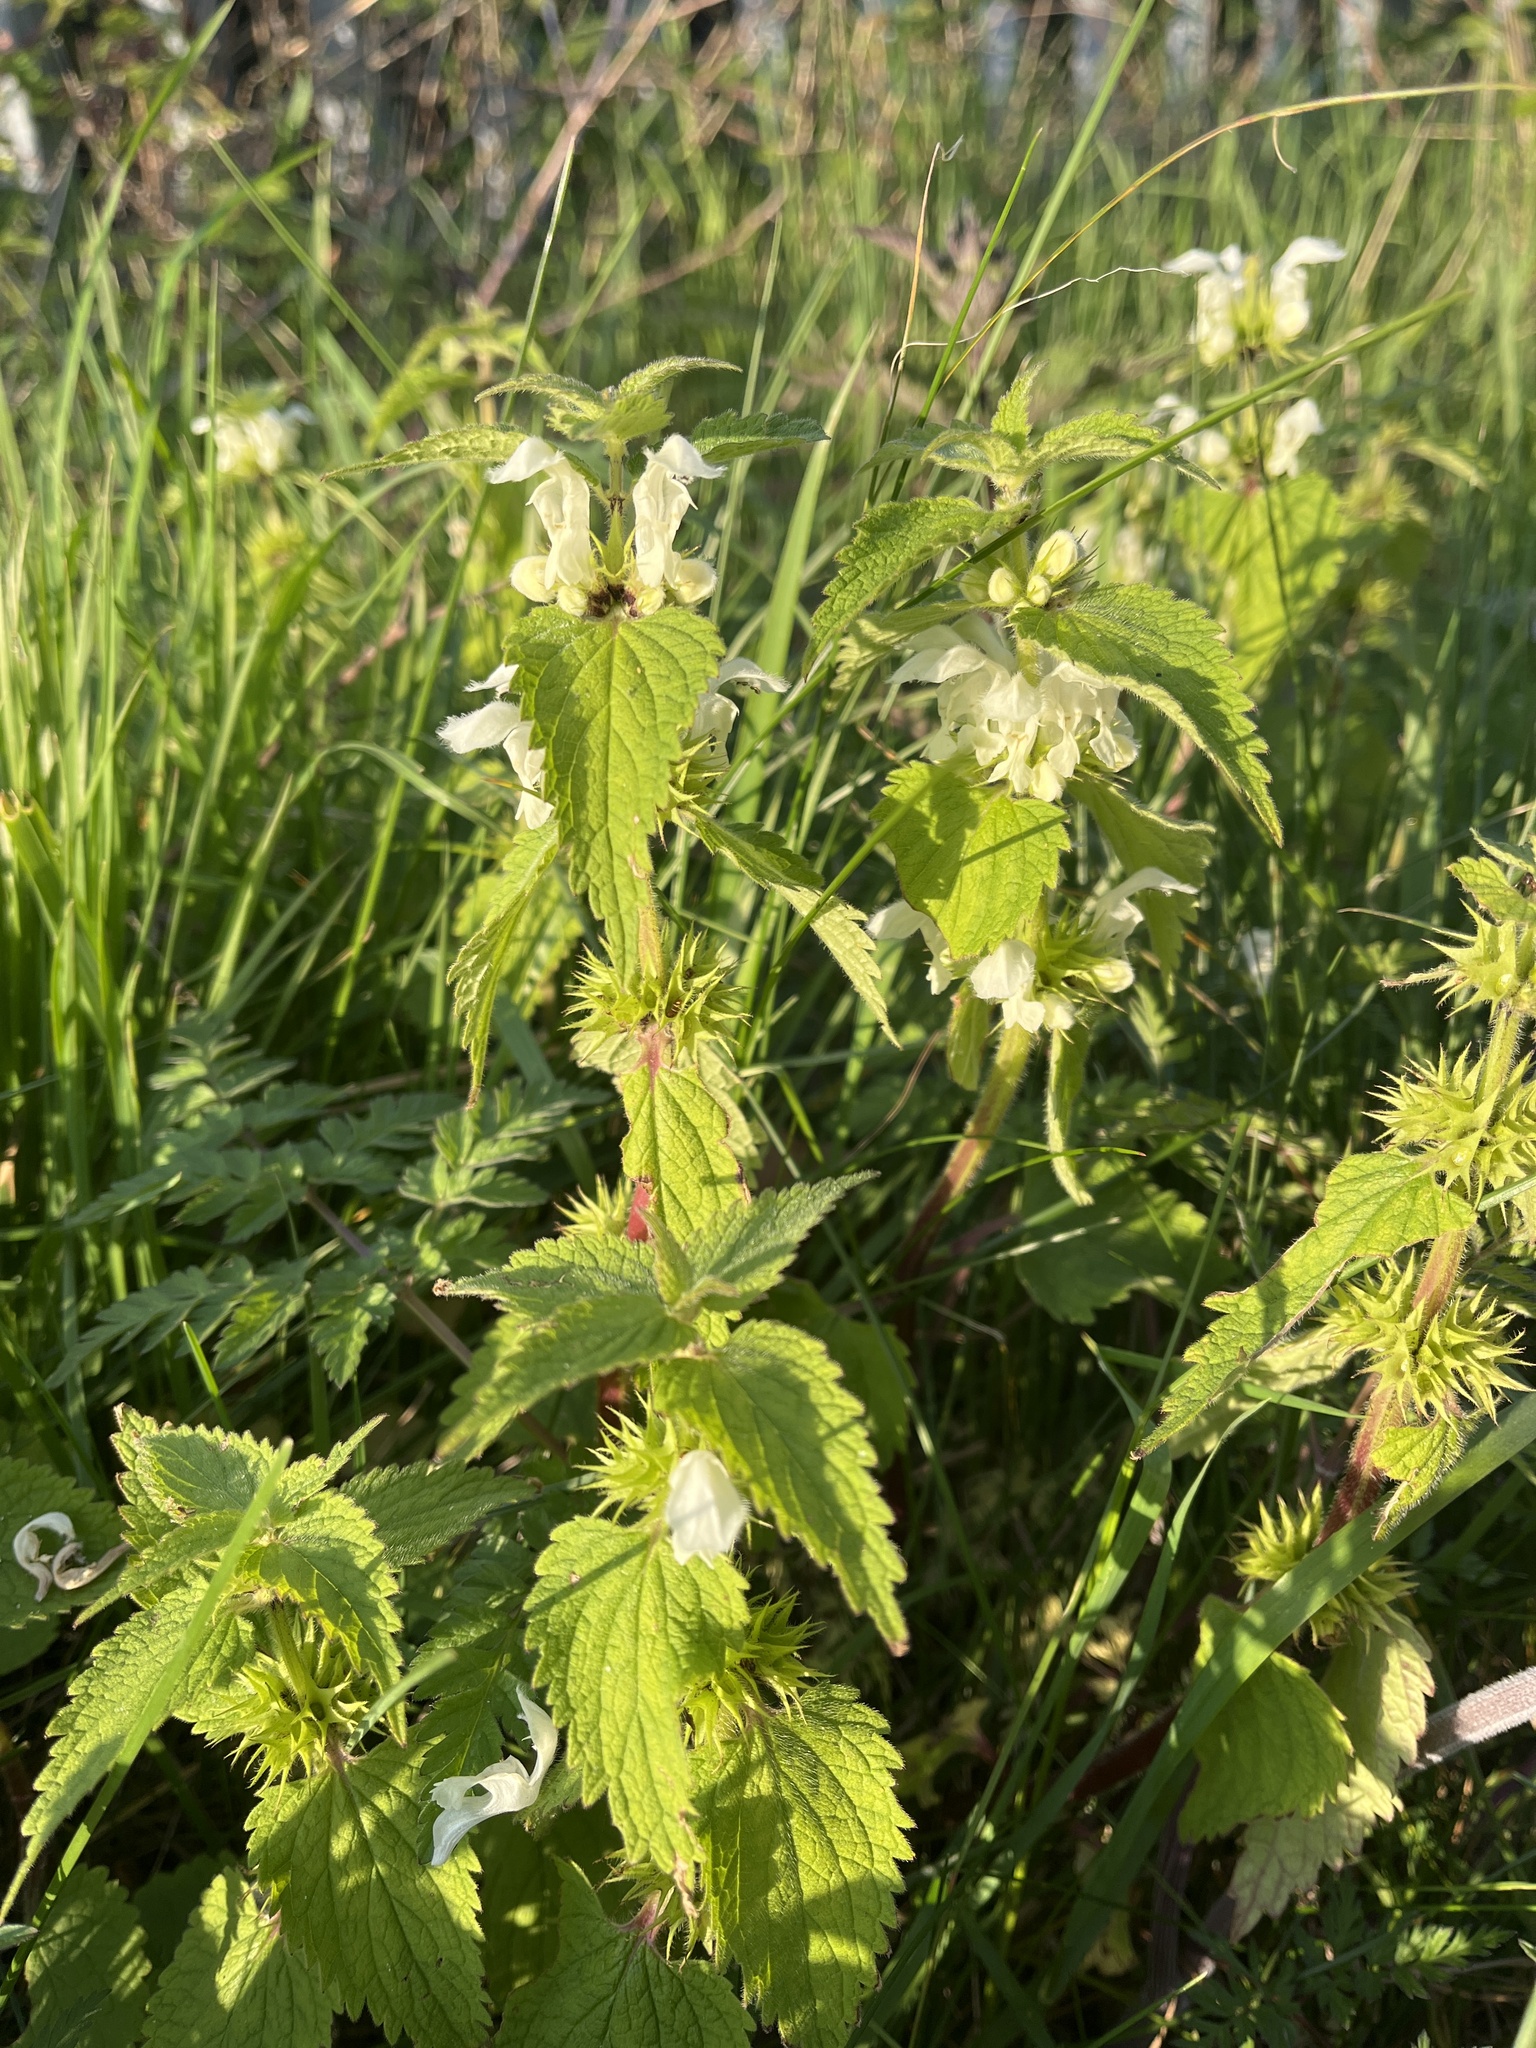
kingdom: Plantae
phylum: Tracheophyta
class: Magnoliopsida
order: Lamiales
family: Lamiaceae
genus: Lamium
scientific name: Lamium album
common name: White dead-nettle
